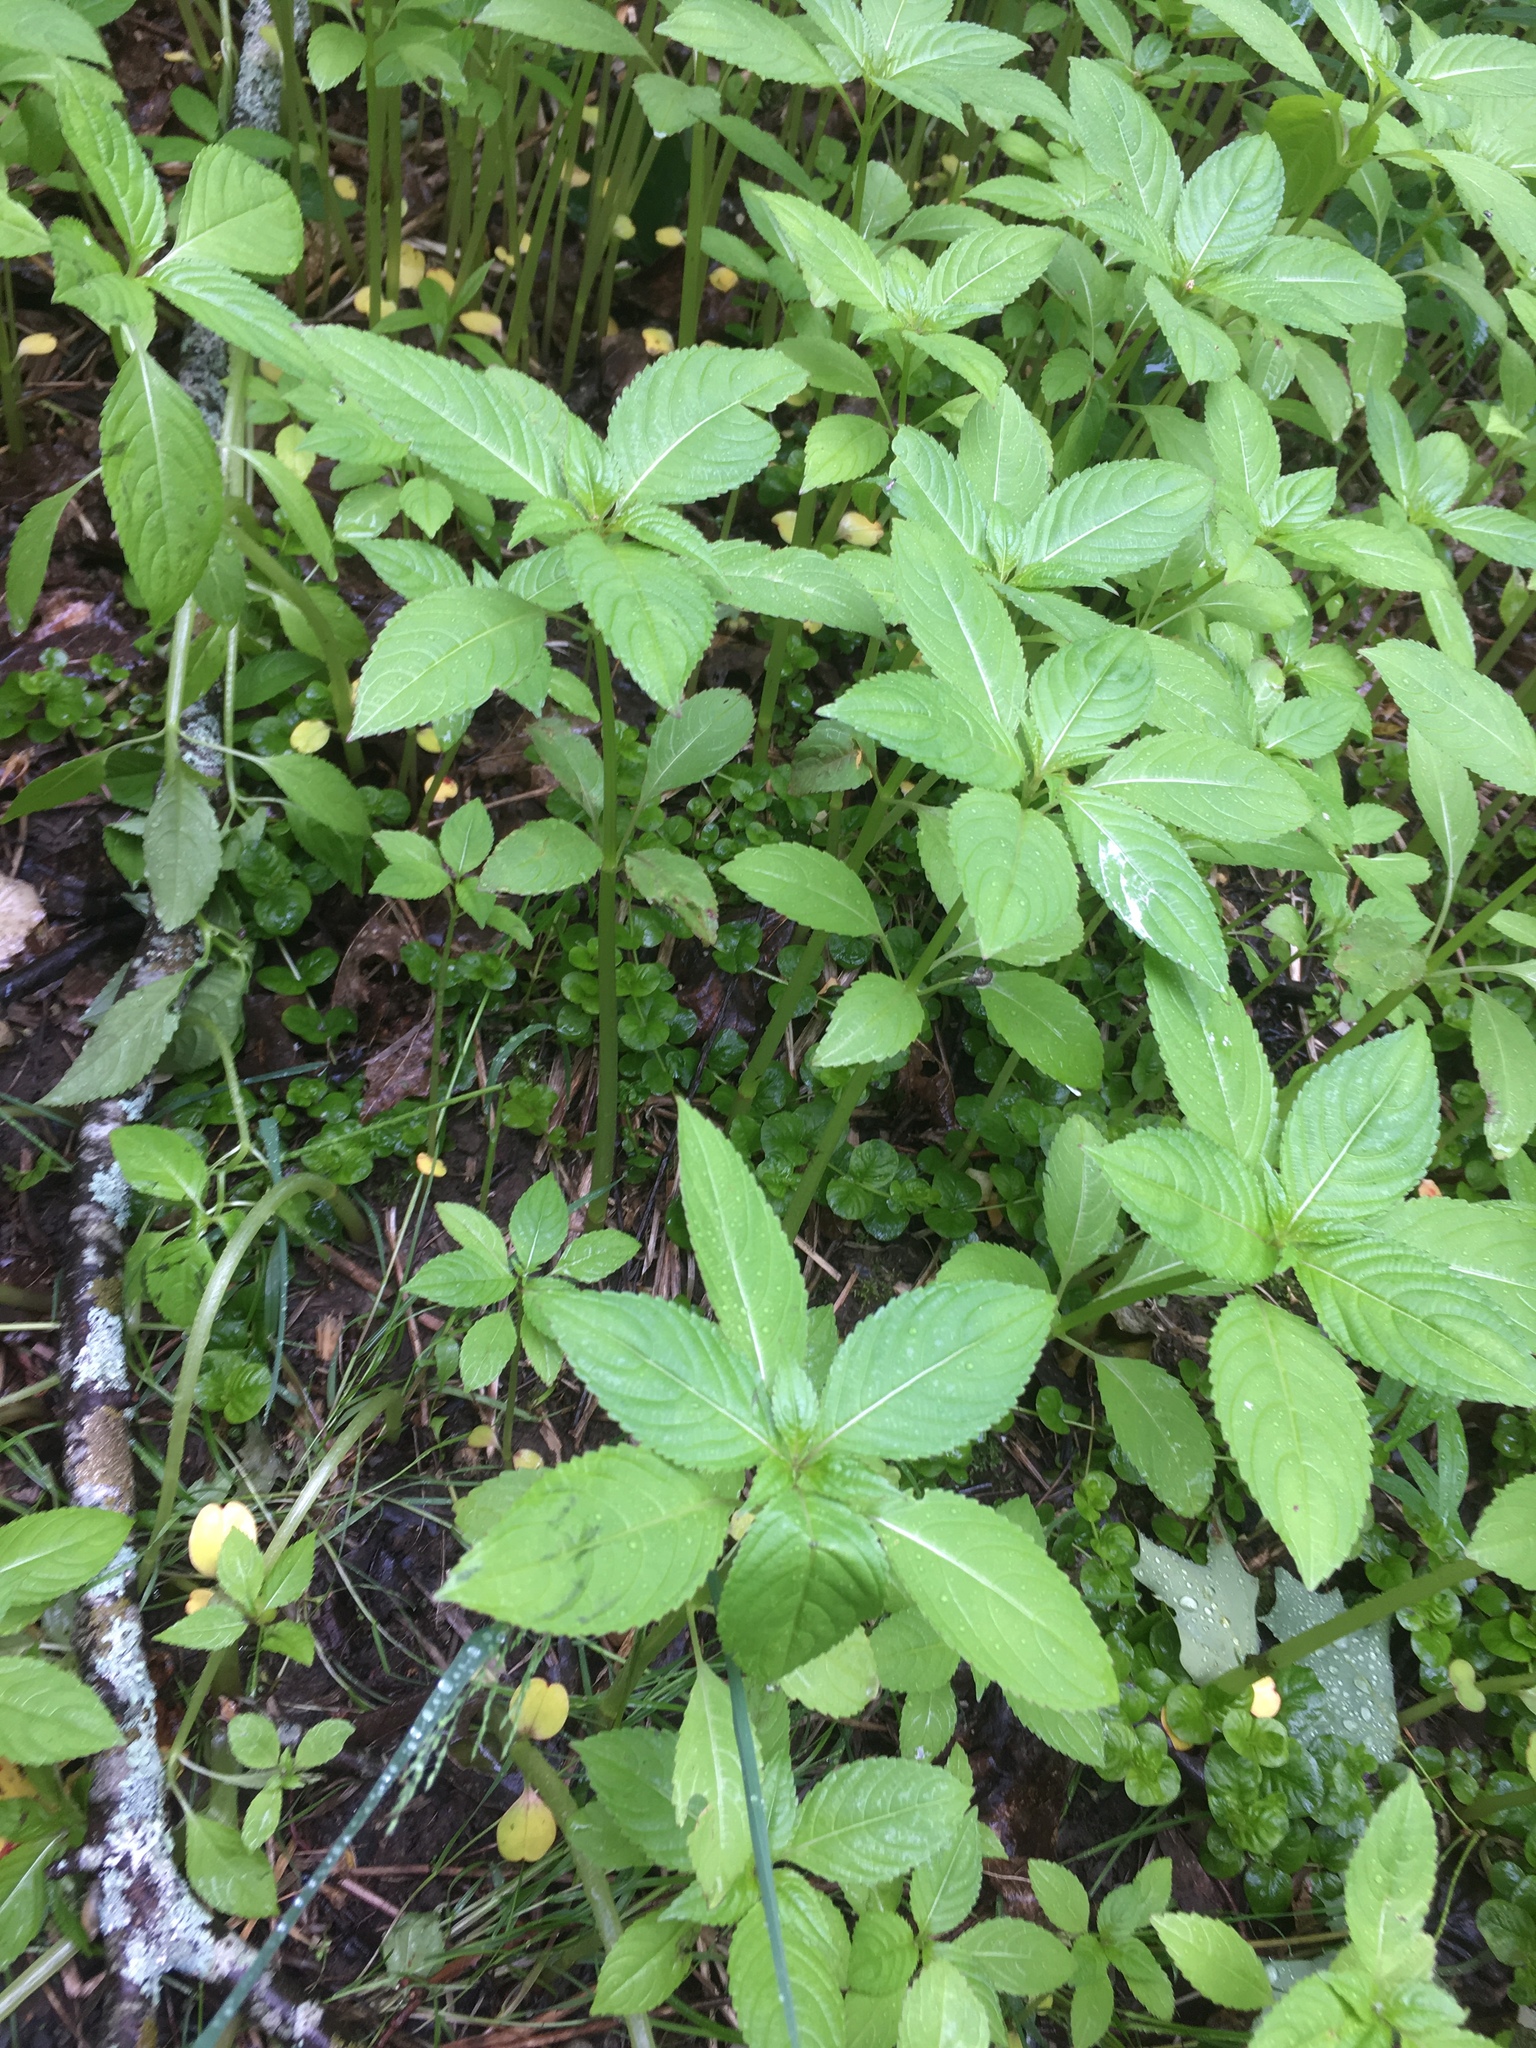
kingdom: Plantae
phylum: Tracheophyta
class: Magnoliopsida
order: Ericales
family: Balsaminaceae
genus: Impatiens
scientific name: Impatiens glandulifera
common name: Himalayan balsam
